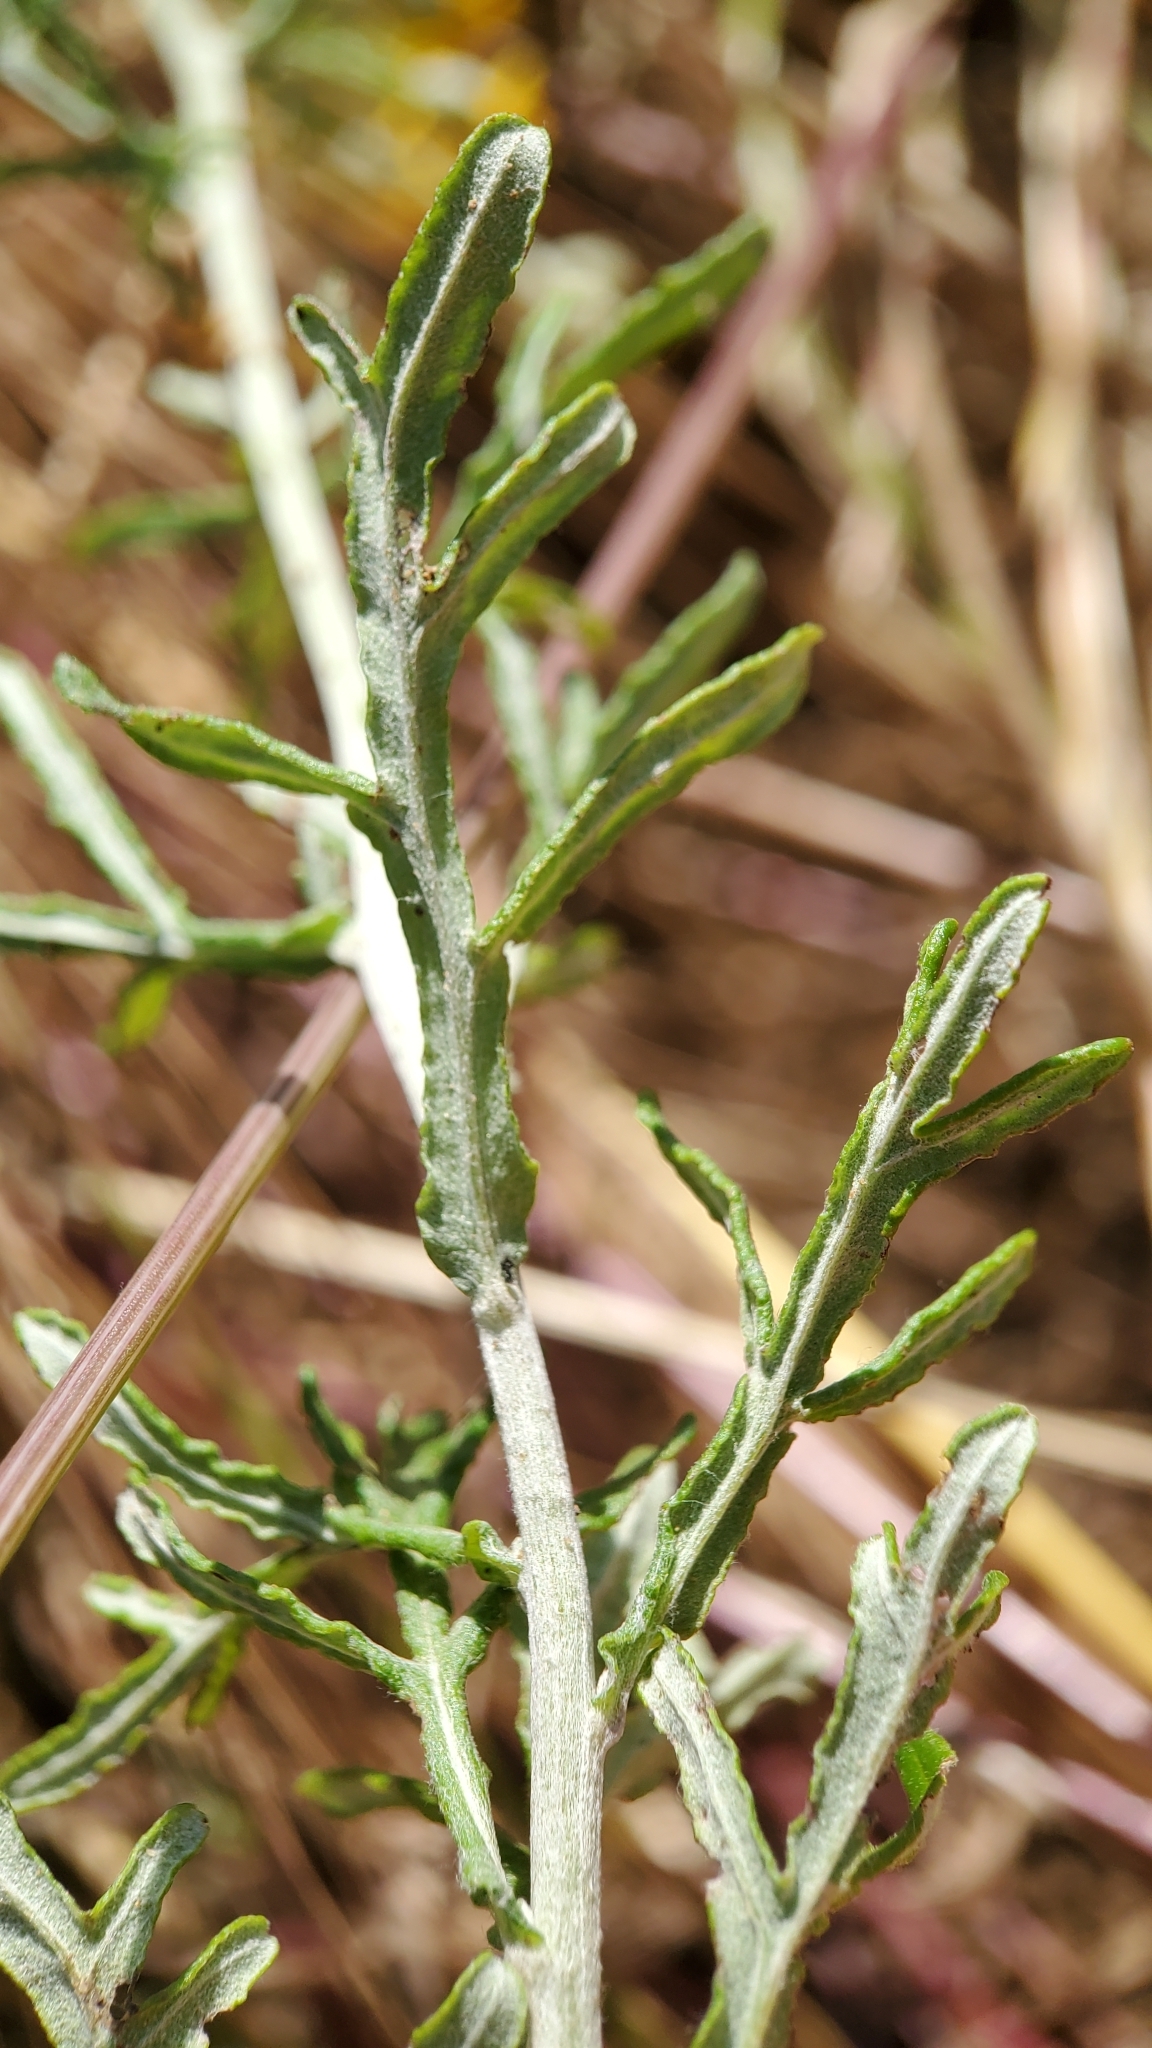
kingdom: Plantae
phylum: Tracheophyta
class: Magnoliopsida
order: Asterales
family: Asteraceae
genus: Eriophyllum
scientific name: Eriophyllum confertiflorum
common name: Golden-yarrow
